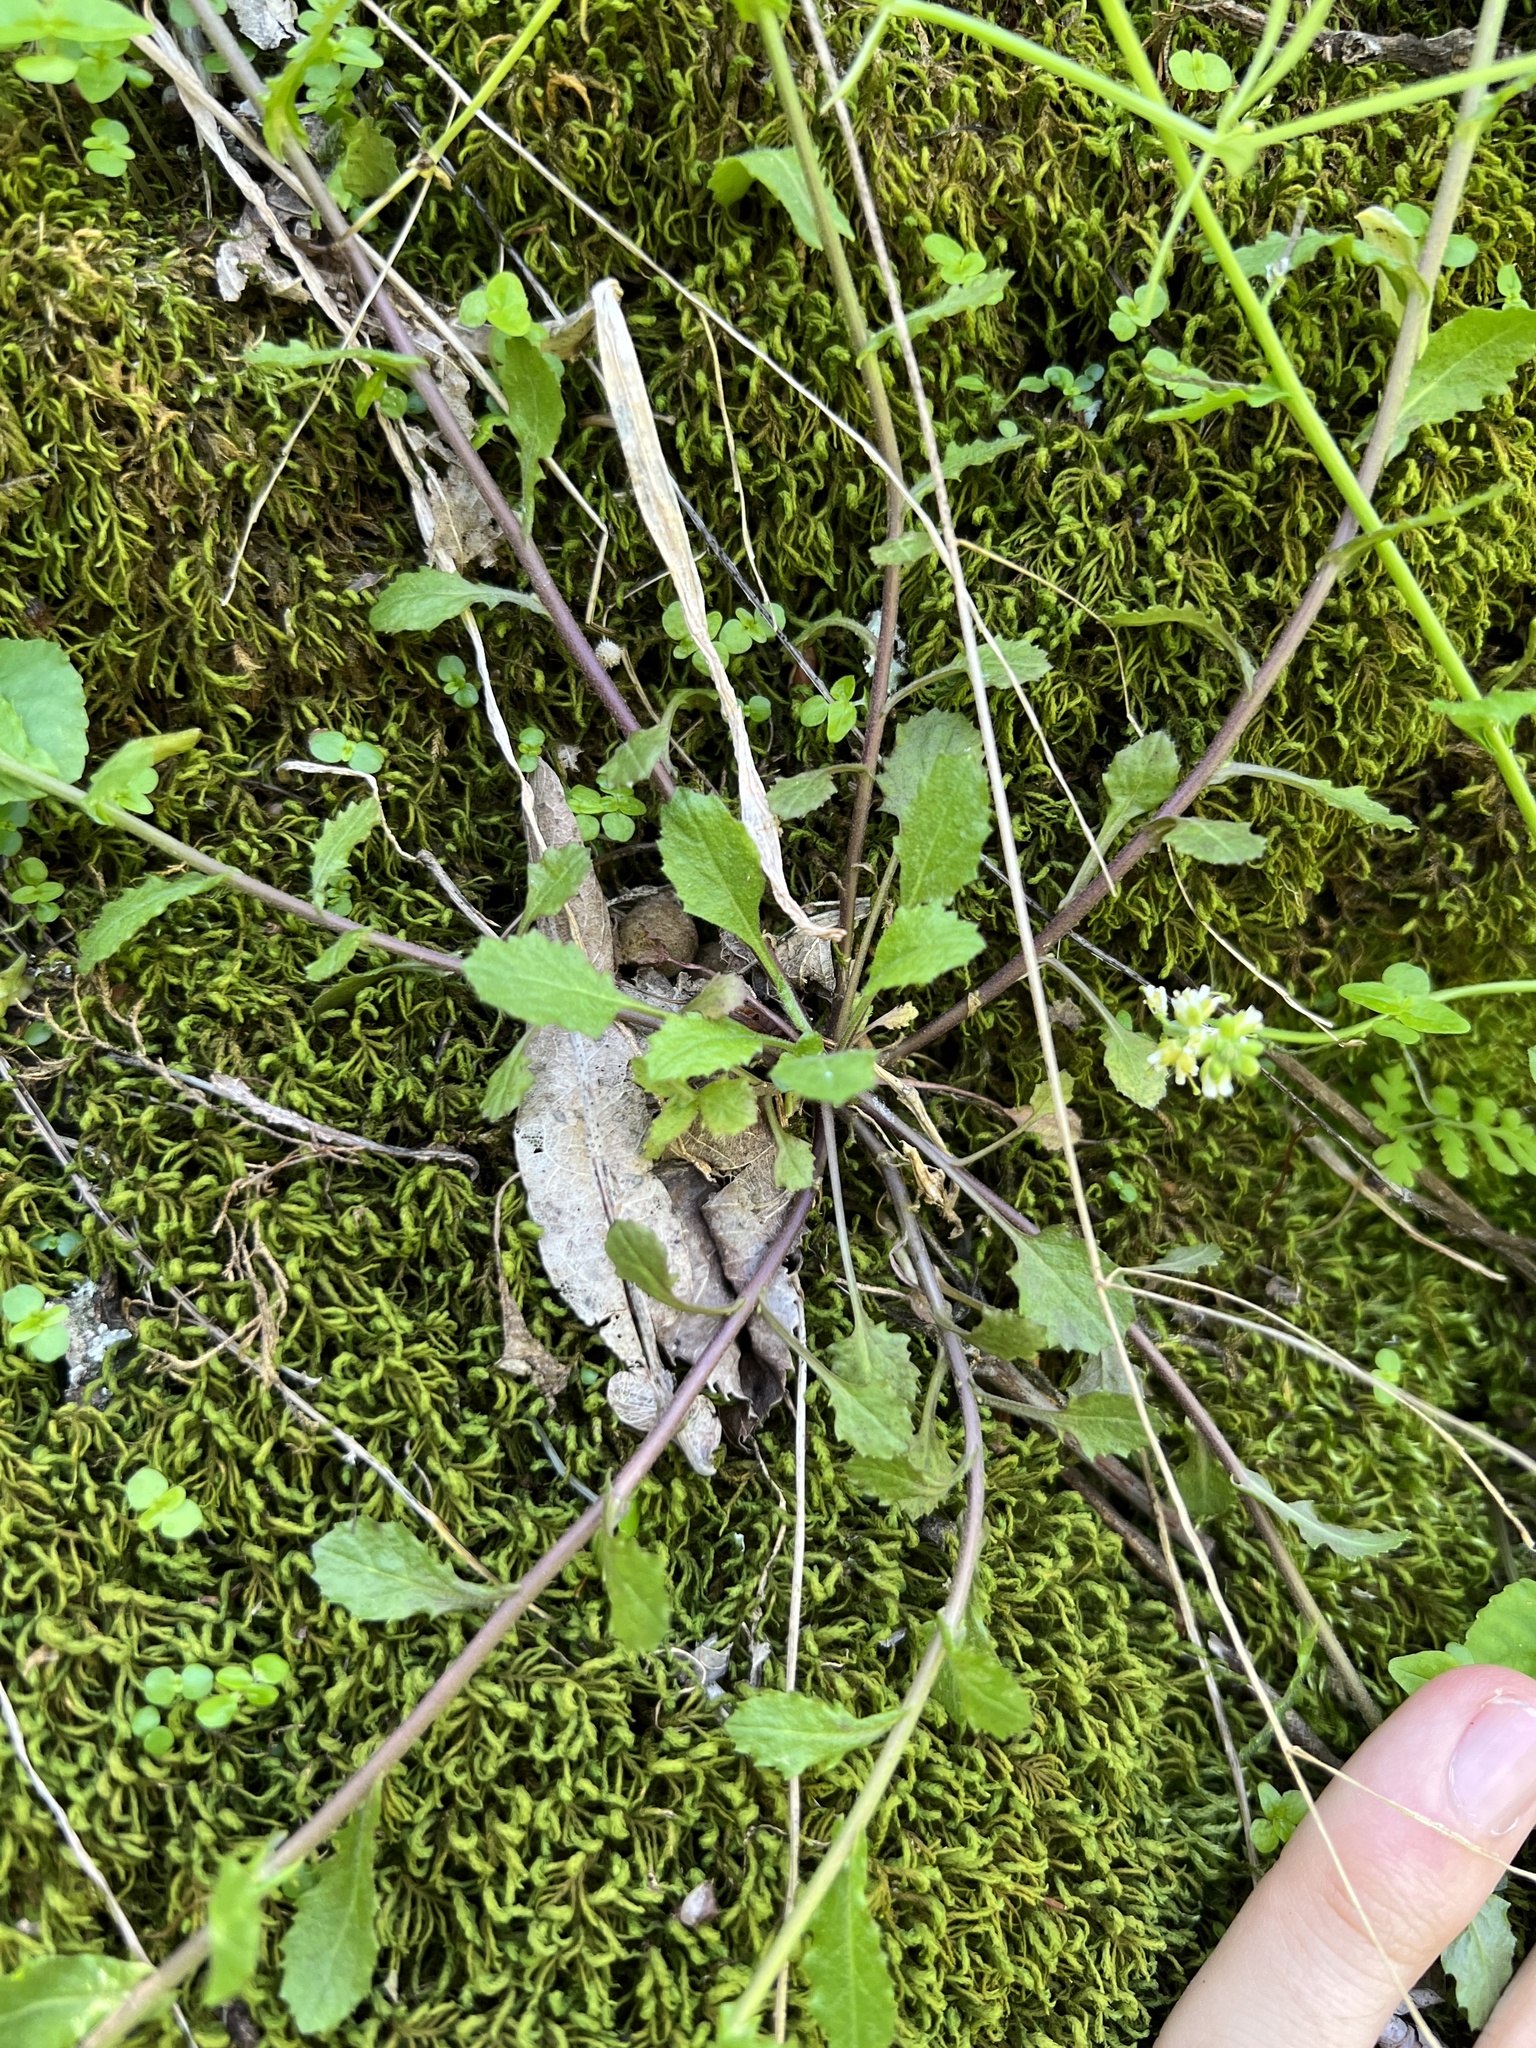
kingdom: Plantae
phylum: Tracheophyta
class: Magnoliopsida
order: Brassicales
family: Brassicaceae
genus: Borodinia
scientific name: Borodinia dentata
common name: Short's rockcress
